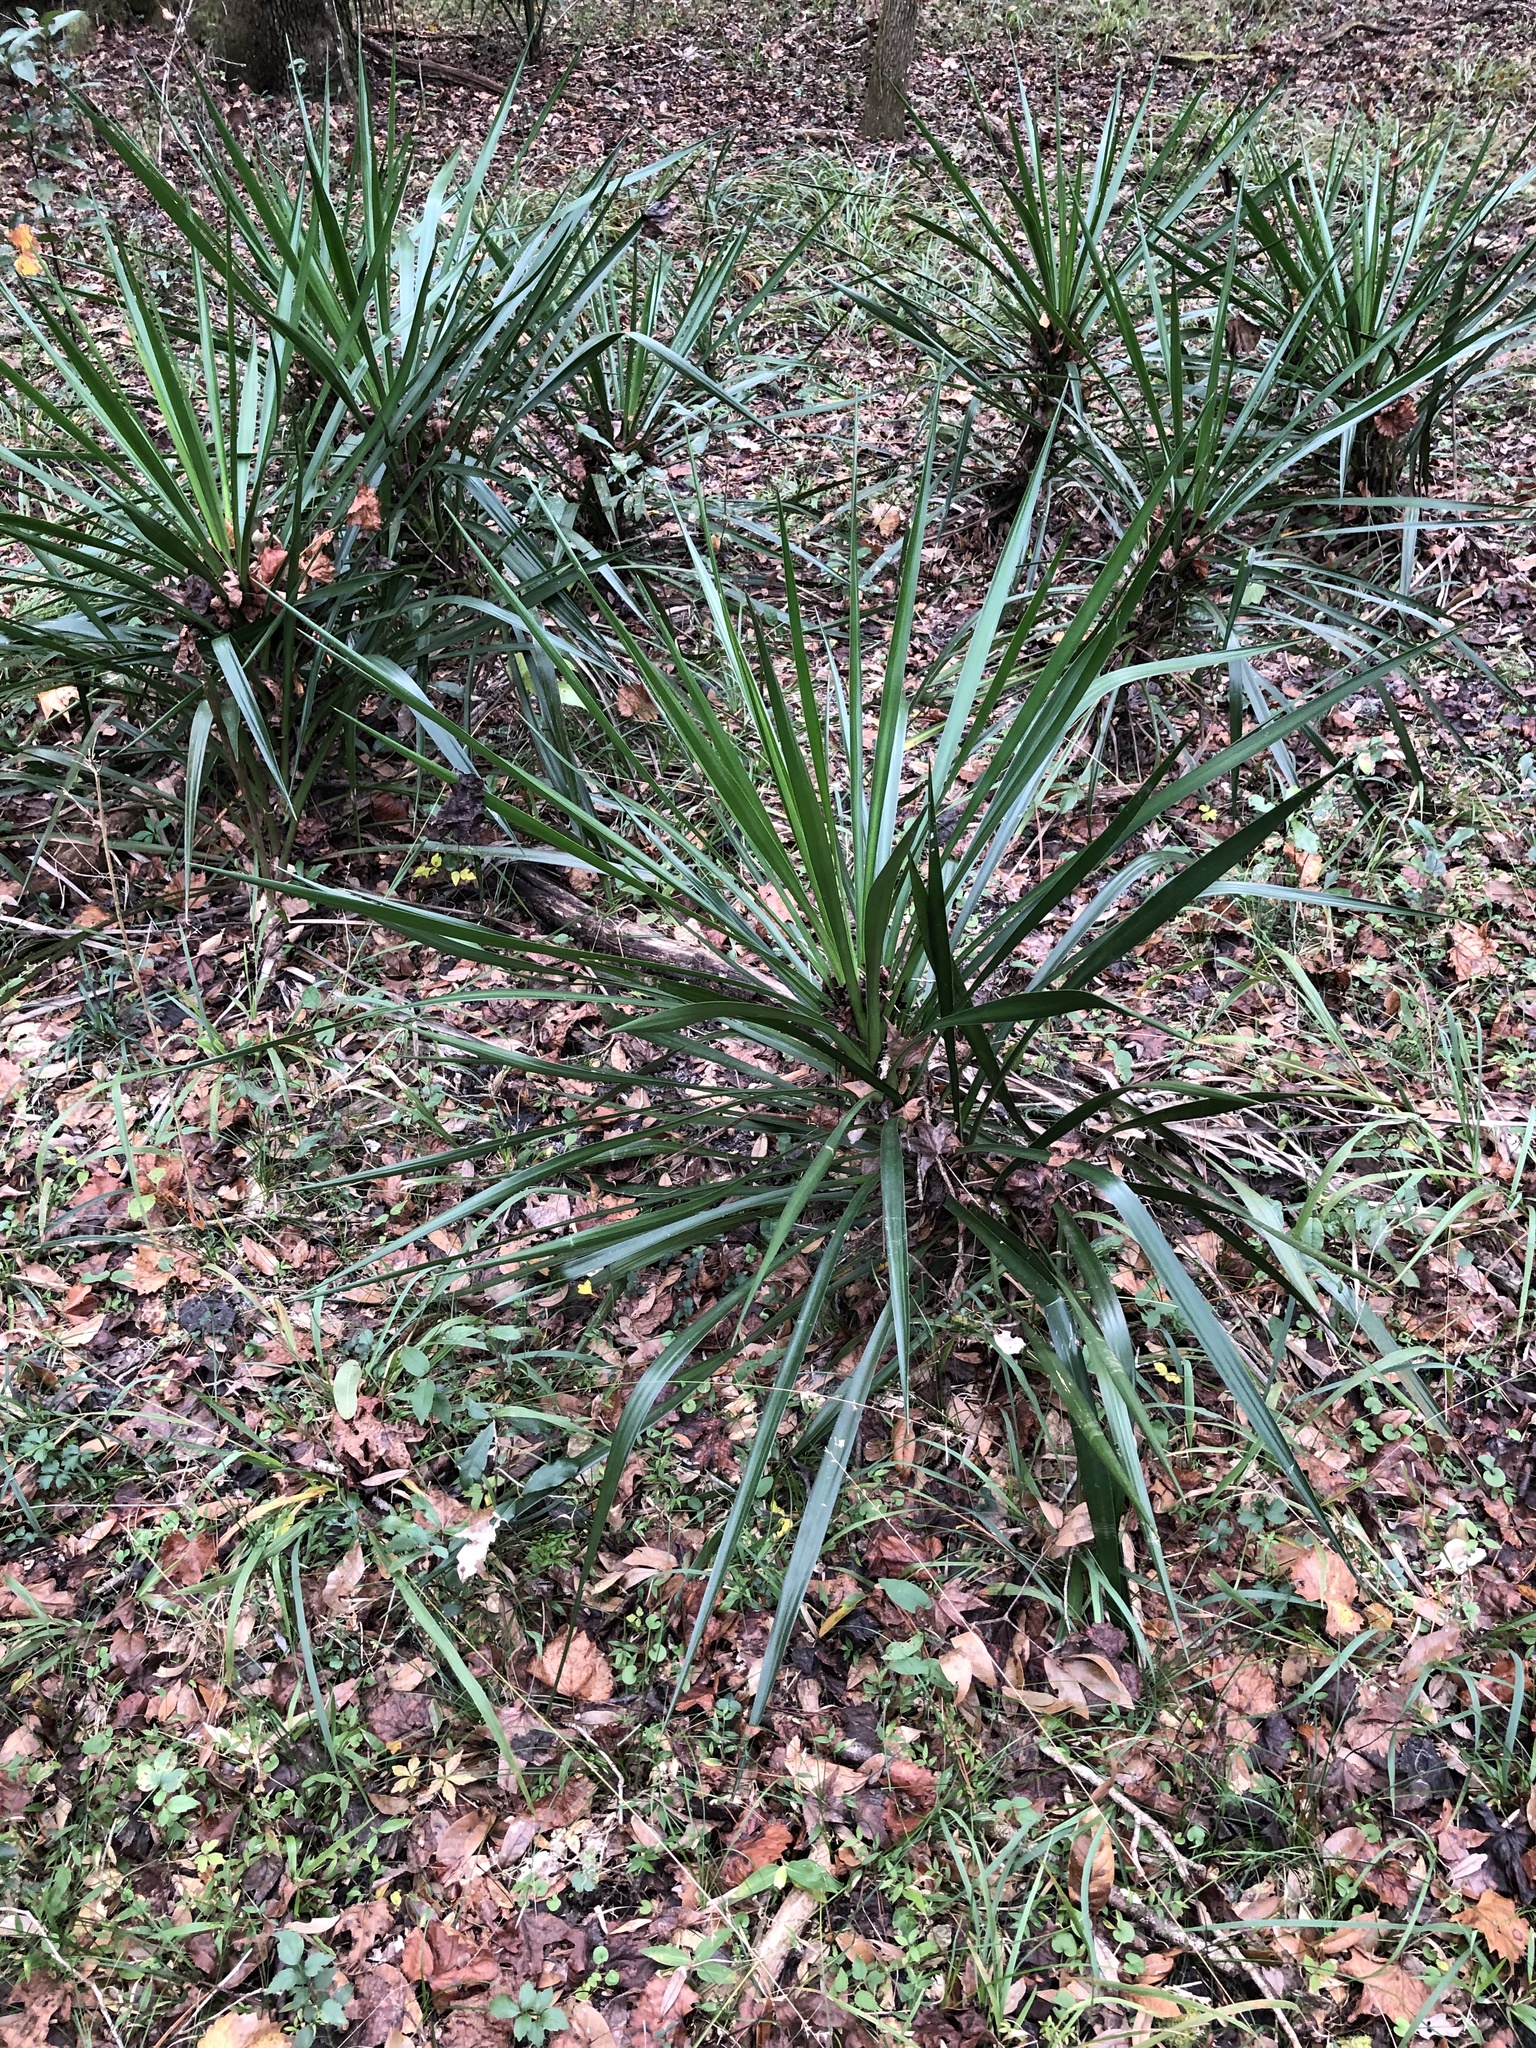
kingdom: Plantae
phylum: Tracheophyta
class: Liliopsida
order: Asparagales
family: Asparagaceae
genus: Yucca
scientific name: Yucca aloifolia
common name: Aloe yucca
